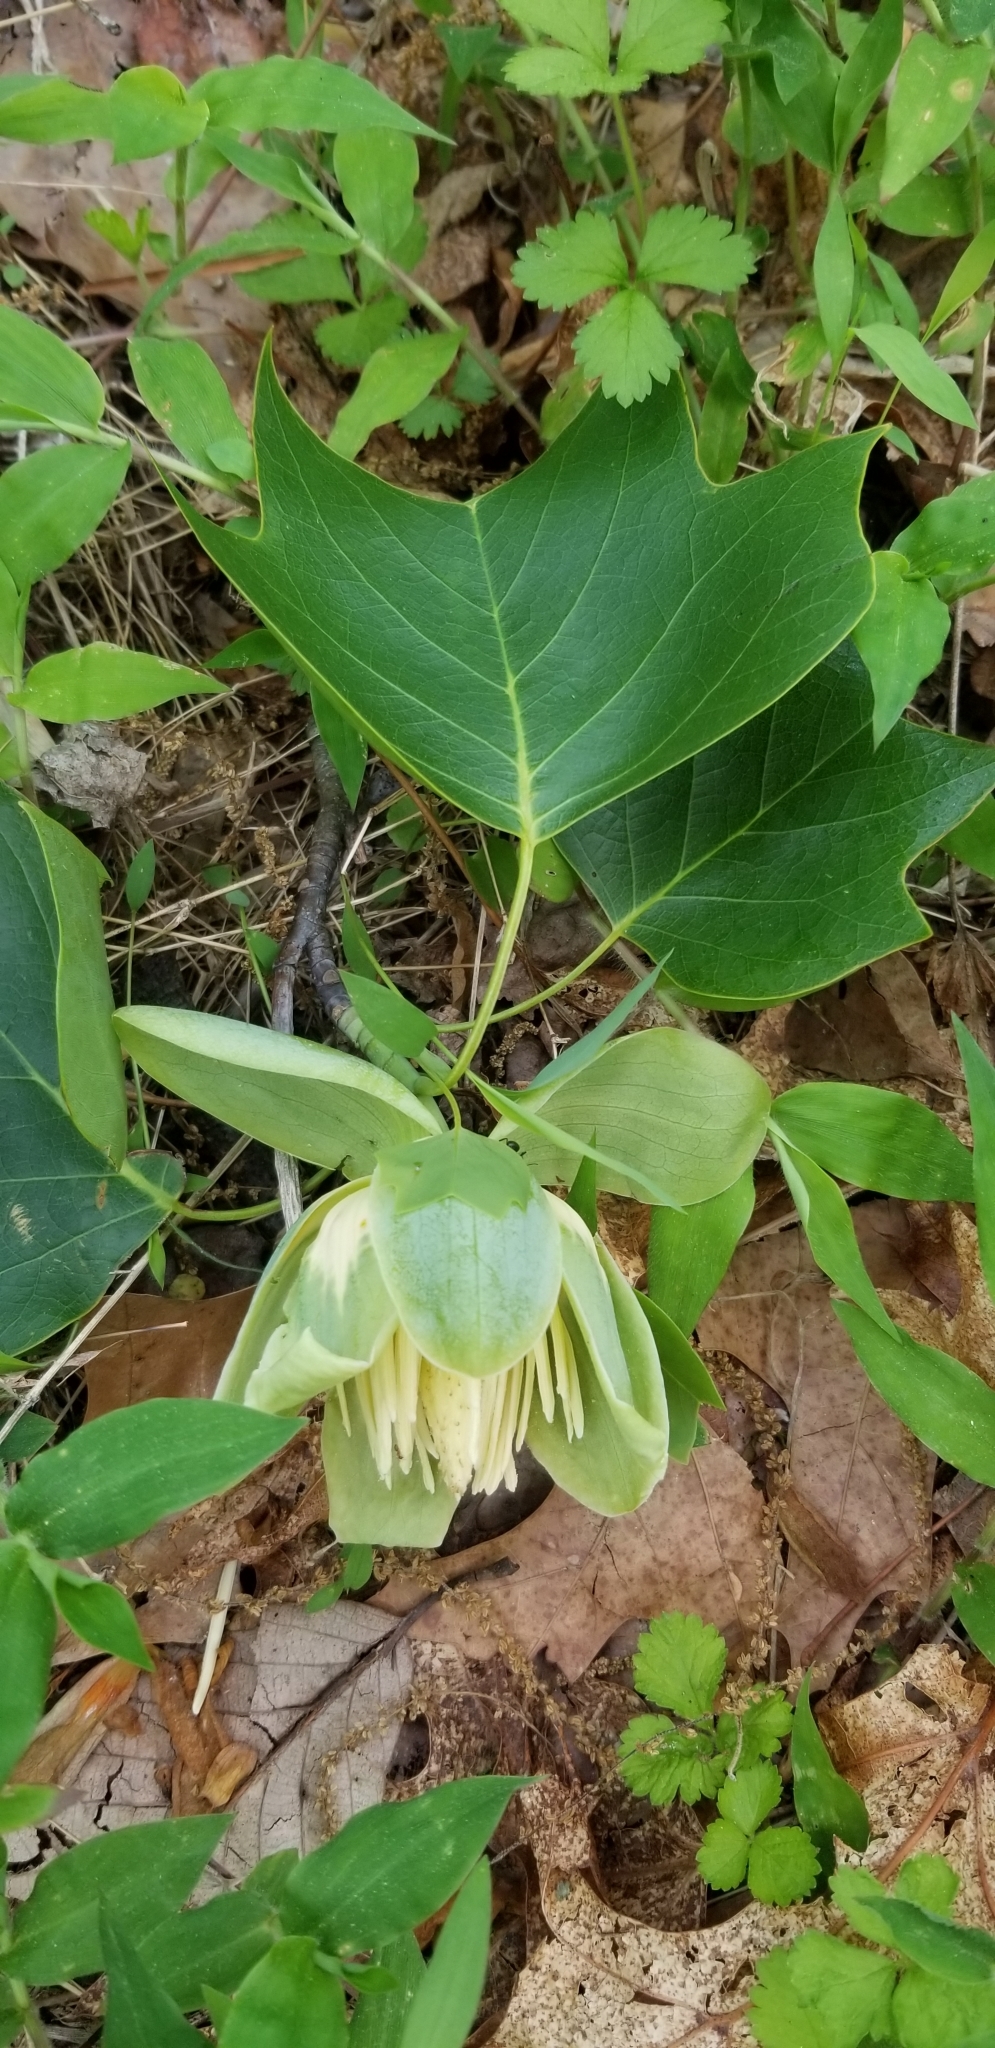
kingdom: Plantae
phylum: Tracheophyta
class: Magnoliopsida
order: Magnoliales
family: Magnoliaceae
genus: Liriodendron
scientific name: Liriodendron tulipifera
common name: Tulip tree
